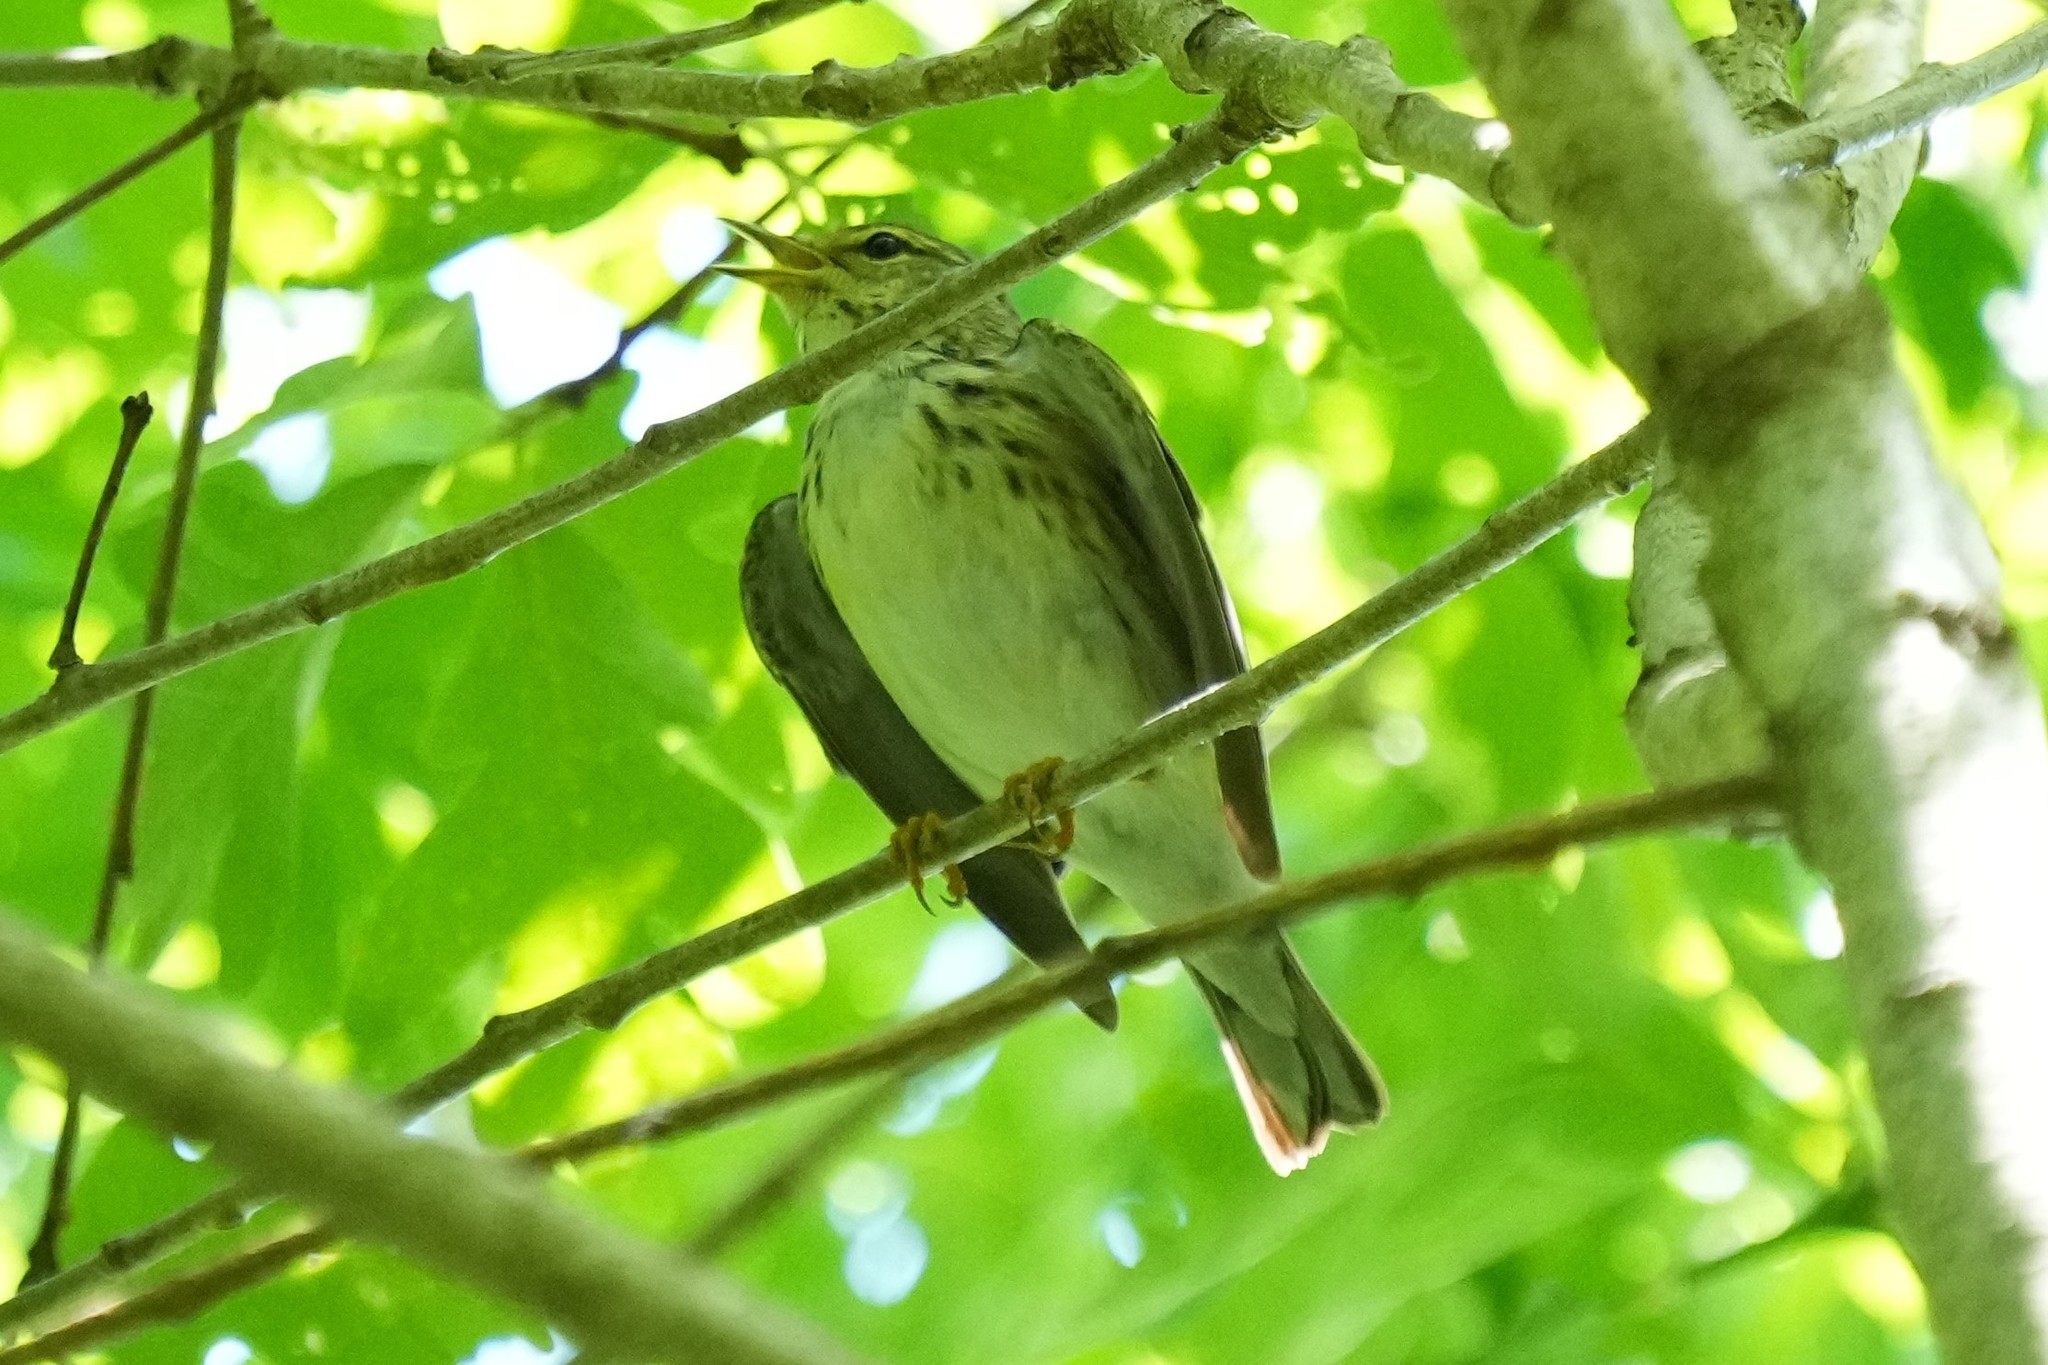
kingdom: Animalia
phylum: Chordata
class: Aves
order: Passeriformes
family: Parulidae
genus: Setophaga
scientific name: Setophaga striata
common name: Blackpoll warbler
